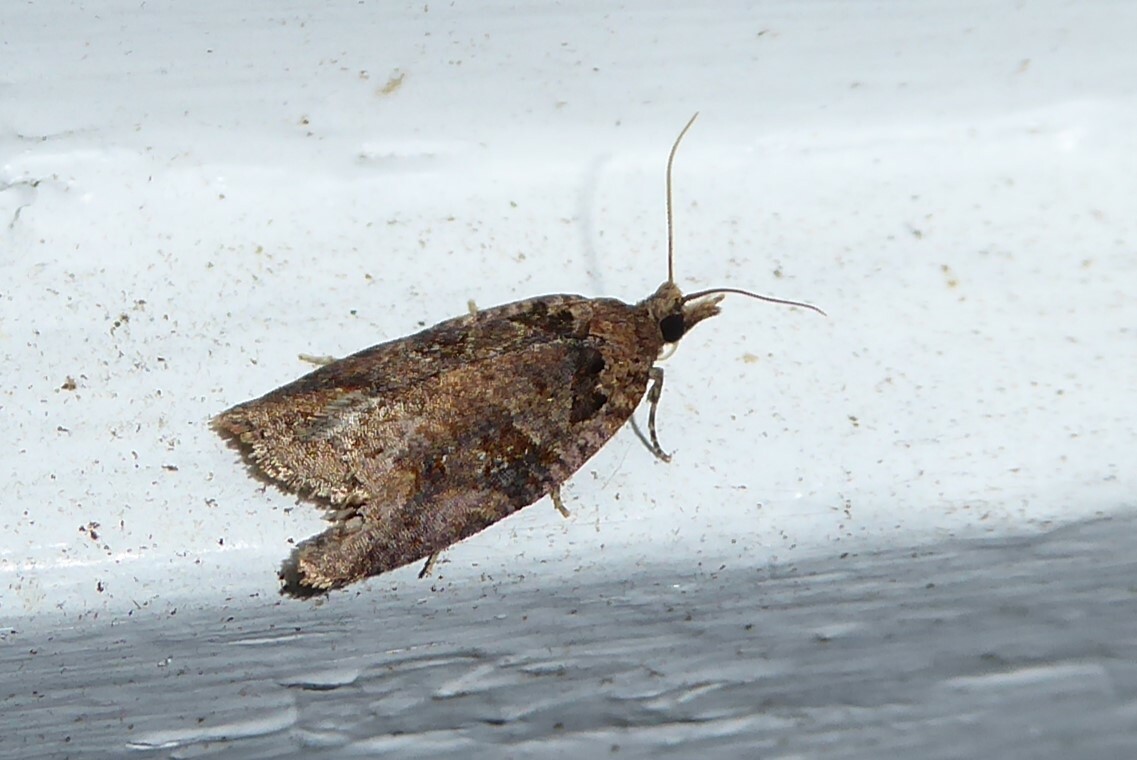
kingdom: Animalia
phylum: Arthropoda
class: Insecta
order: Lepidoptera
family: Tortricidae
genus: Ctenopseustis
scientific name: Ctenopseustis obliquana
